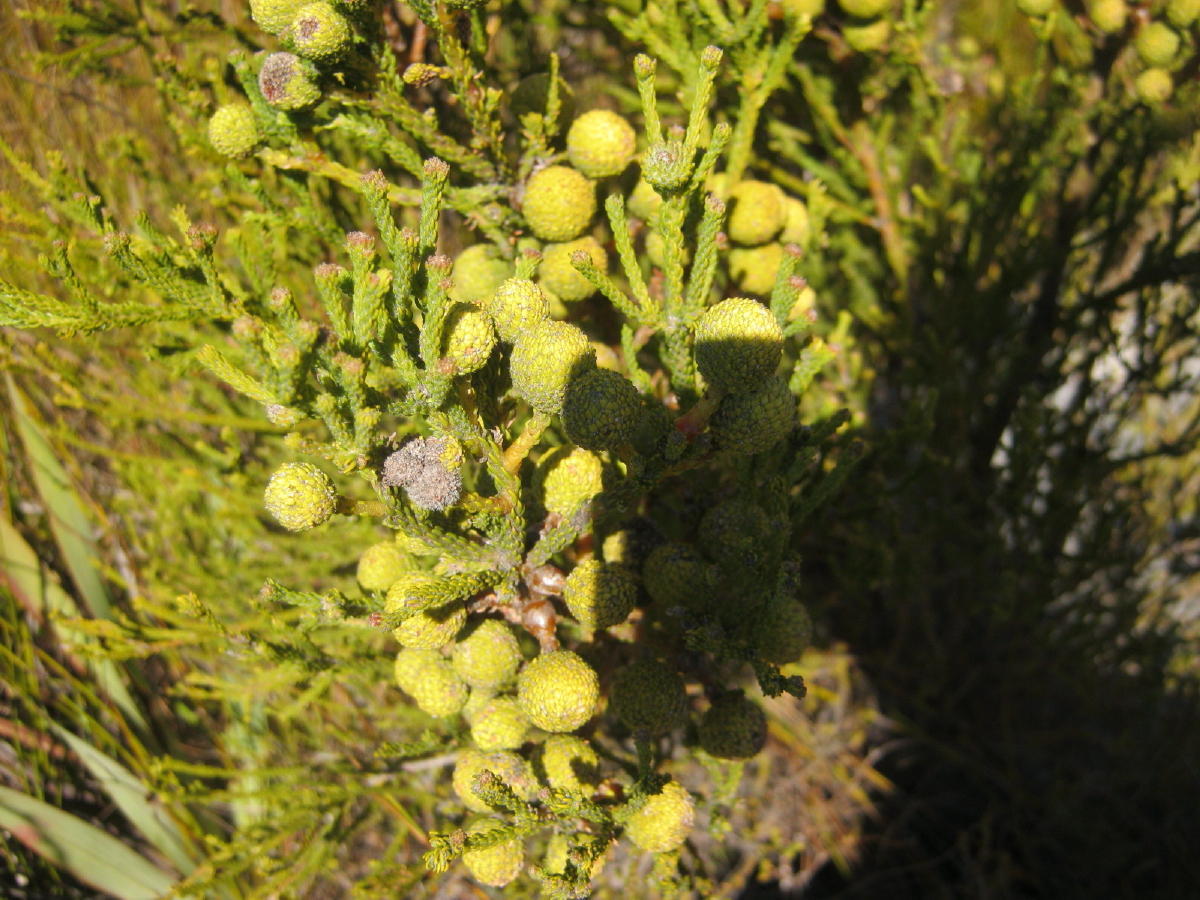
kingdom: Plantae
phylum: Tracheophyta
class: Magnoliopsida
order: Bruniales
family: Bruniaceae
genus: Berzelia
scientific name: Berzelia intermedia
